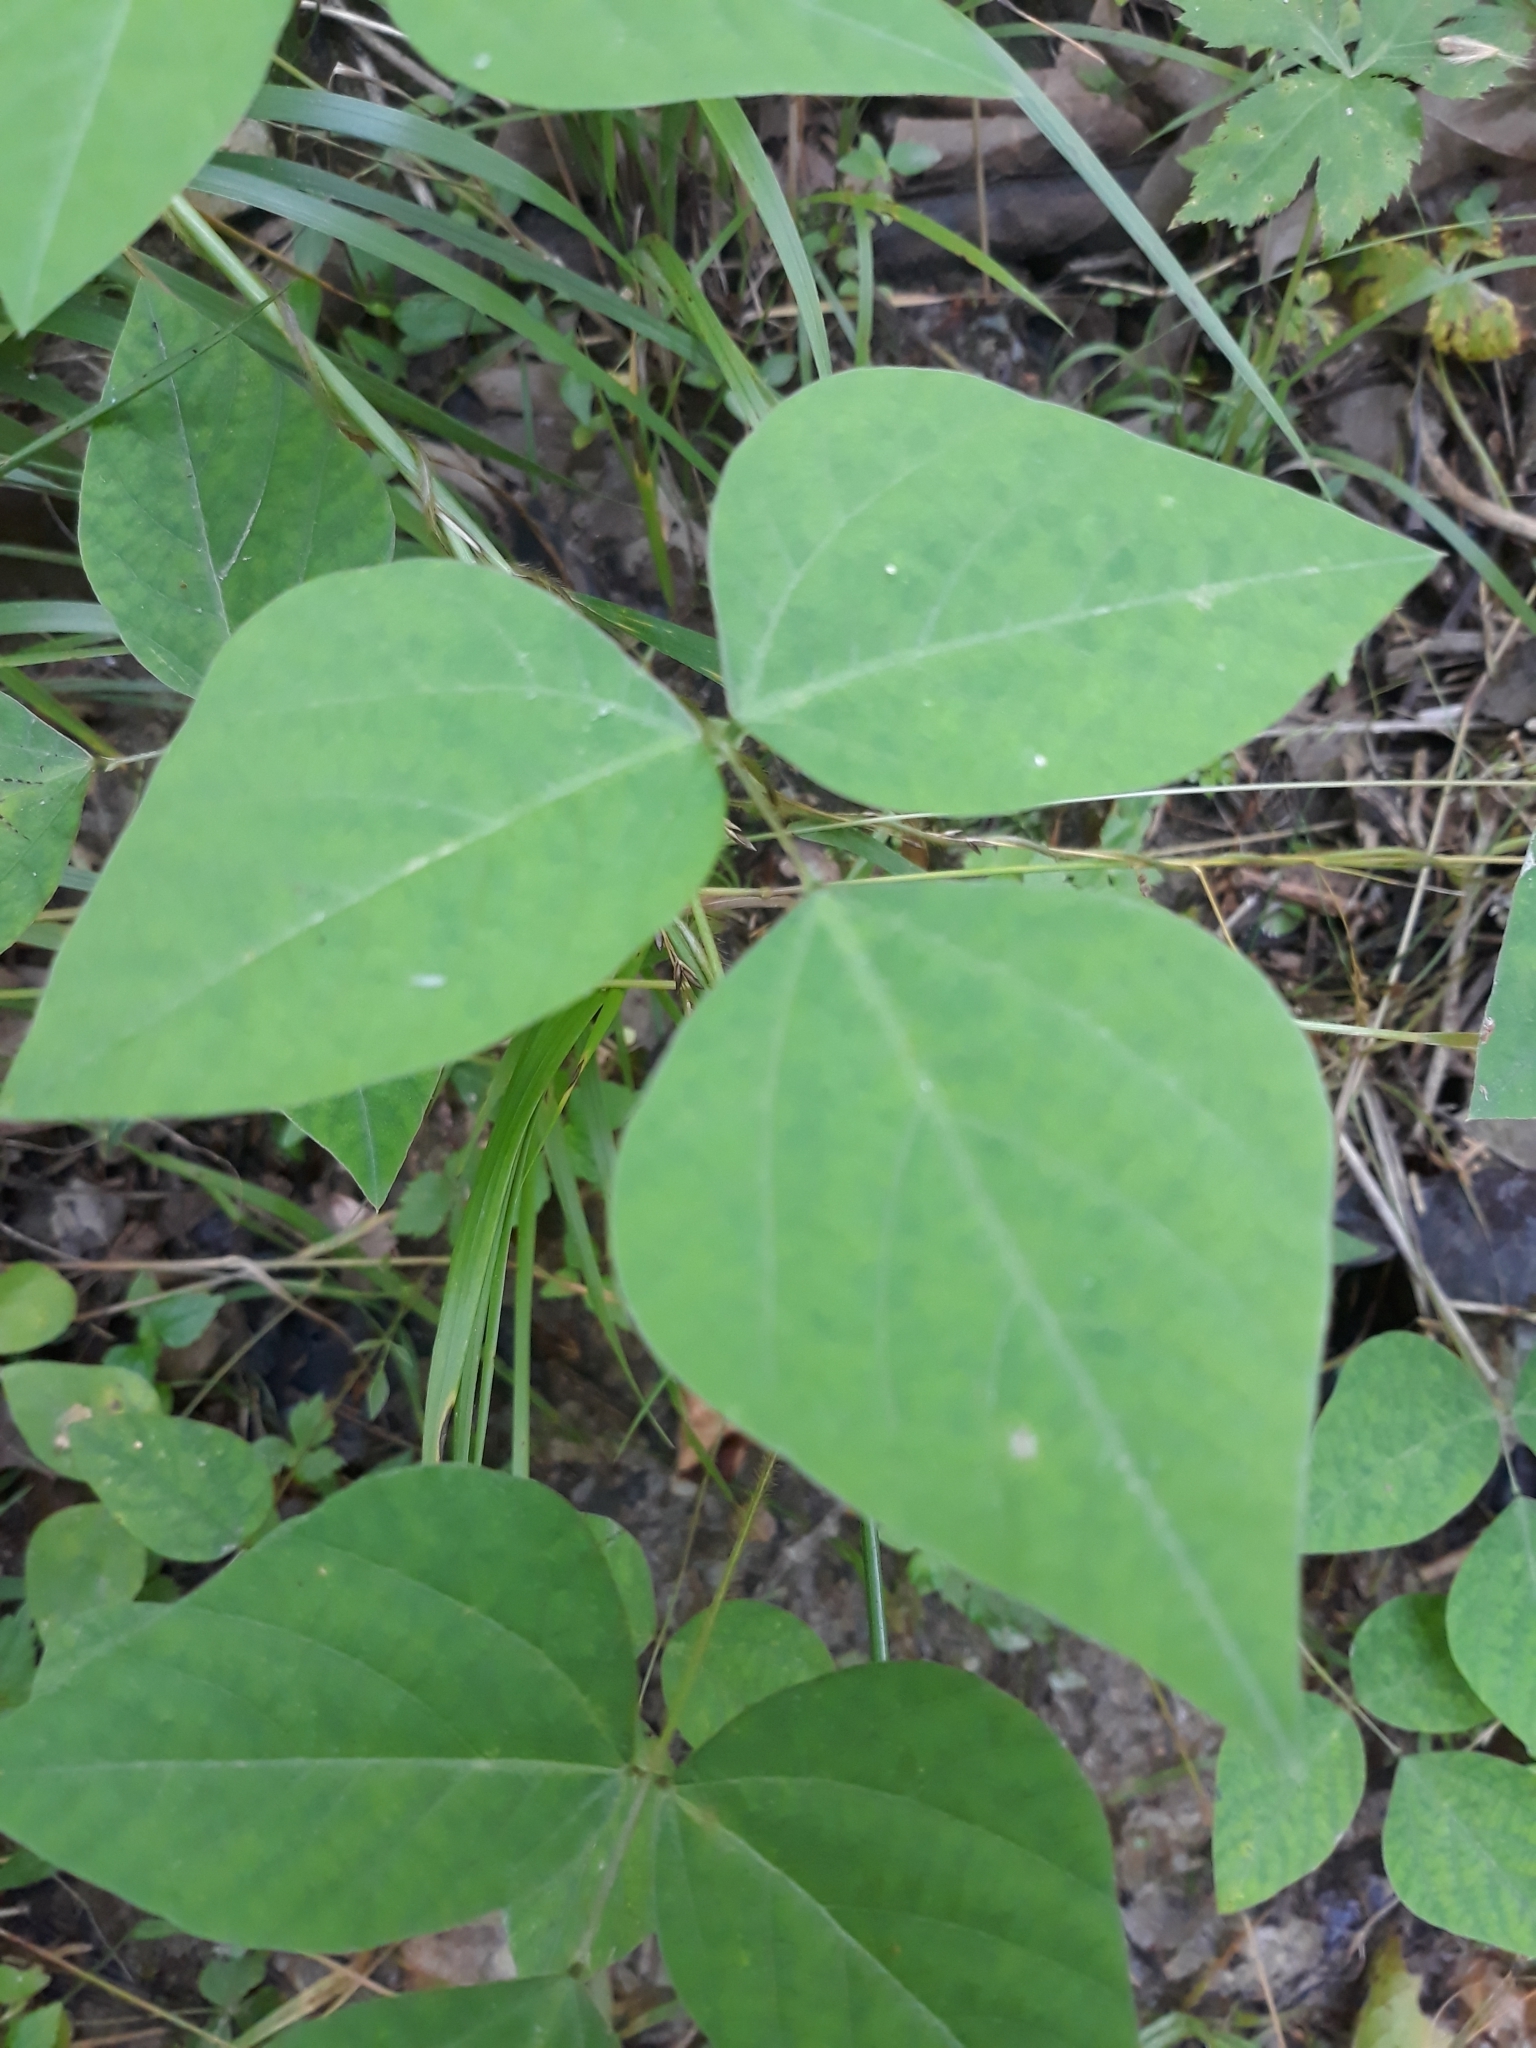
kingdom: Plantae
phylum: Tracheophyta
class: Magnoliopsida
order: Fabales
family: Fabaceae
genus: Amphicarpaea
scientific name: Amphicarpaea bracteata
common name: American hog peanut
